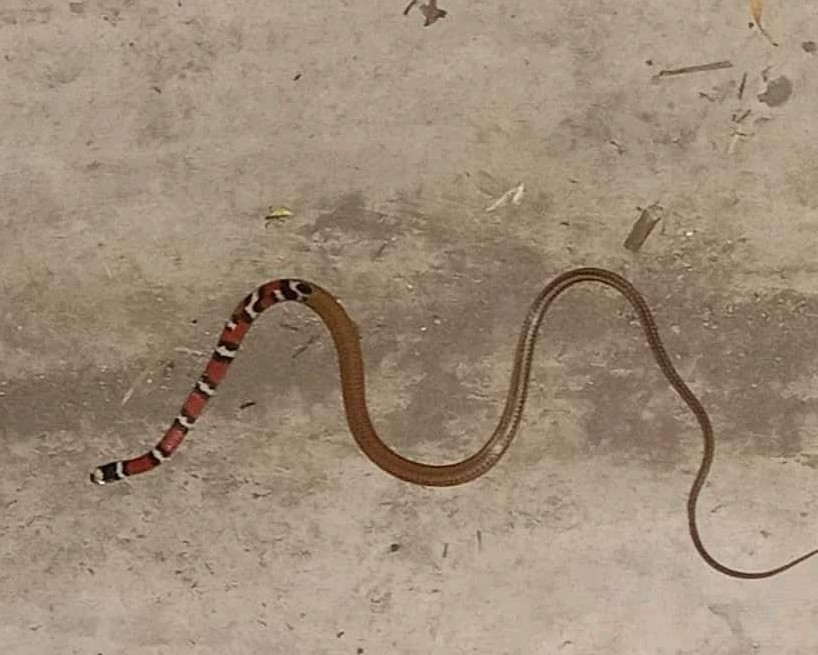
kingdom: Animalia
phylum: Chordata
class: Squamata
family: Colubridae
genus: Scaphiodontophis
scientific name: Scaphiodontophis annulatus
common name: Guatemala neckband snake
